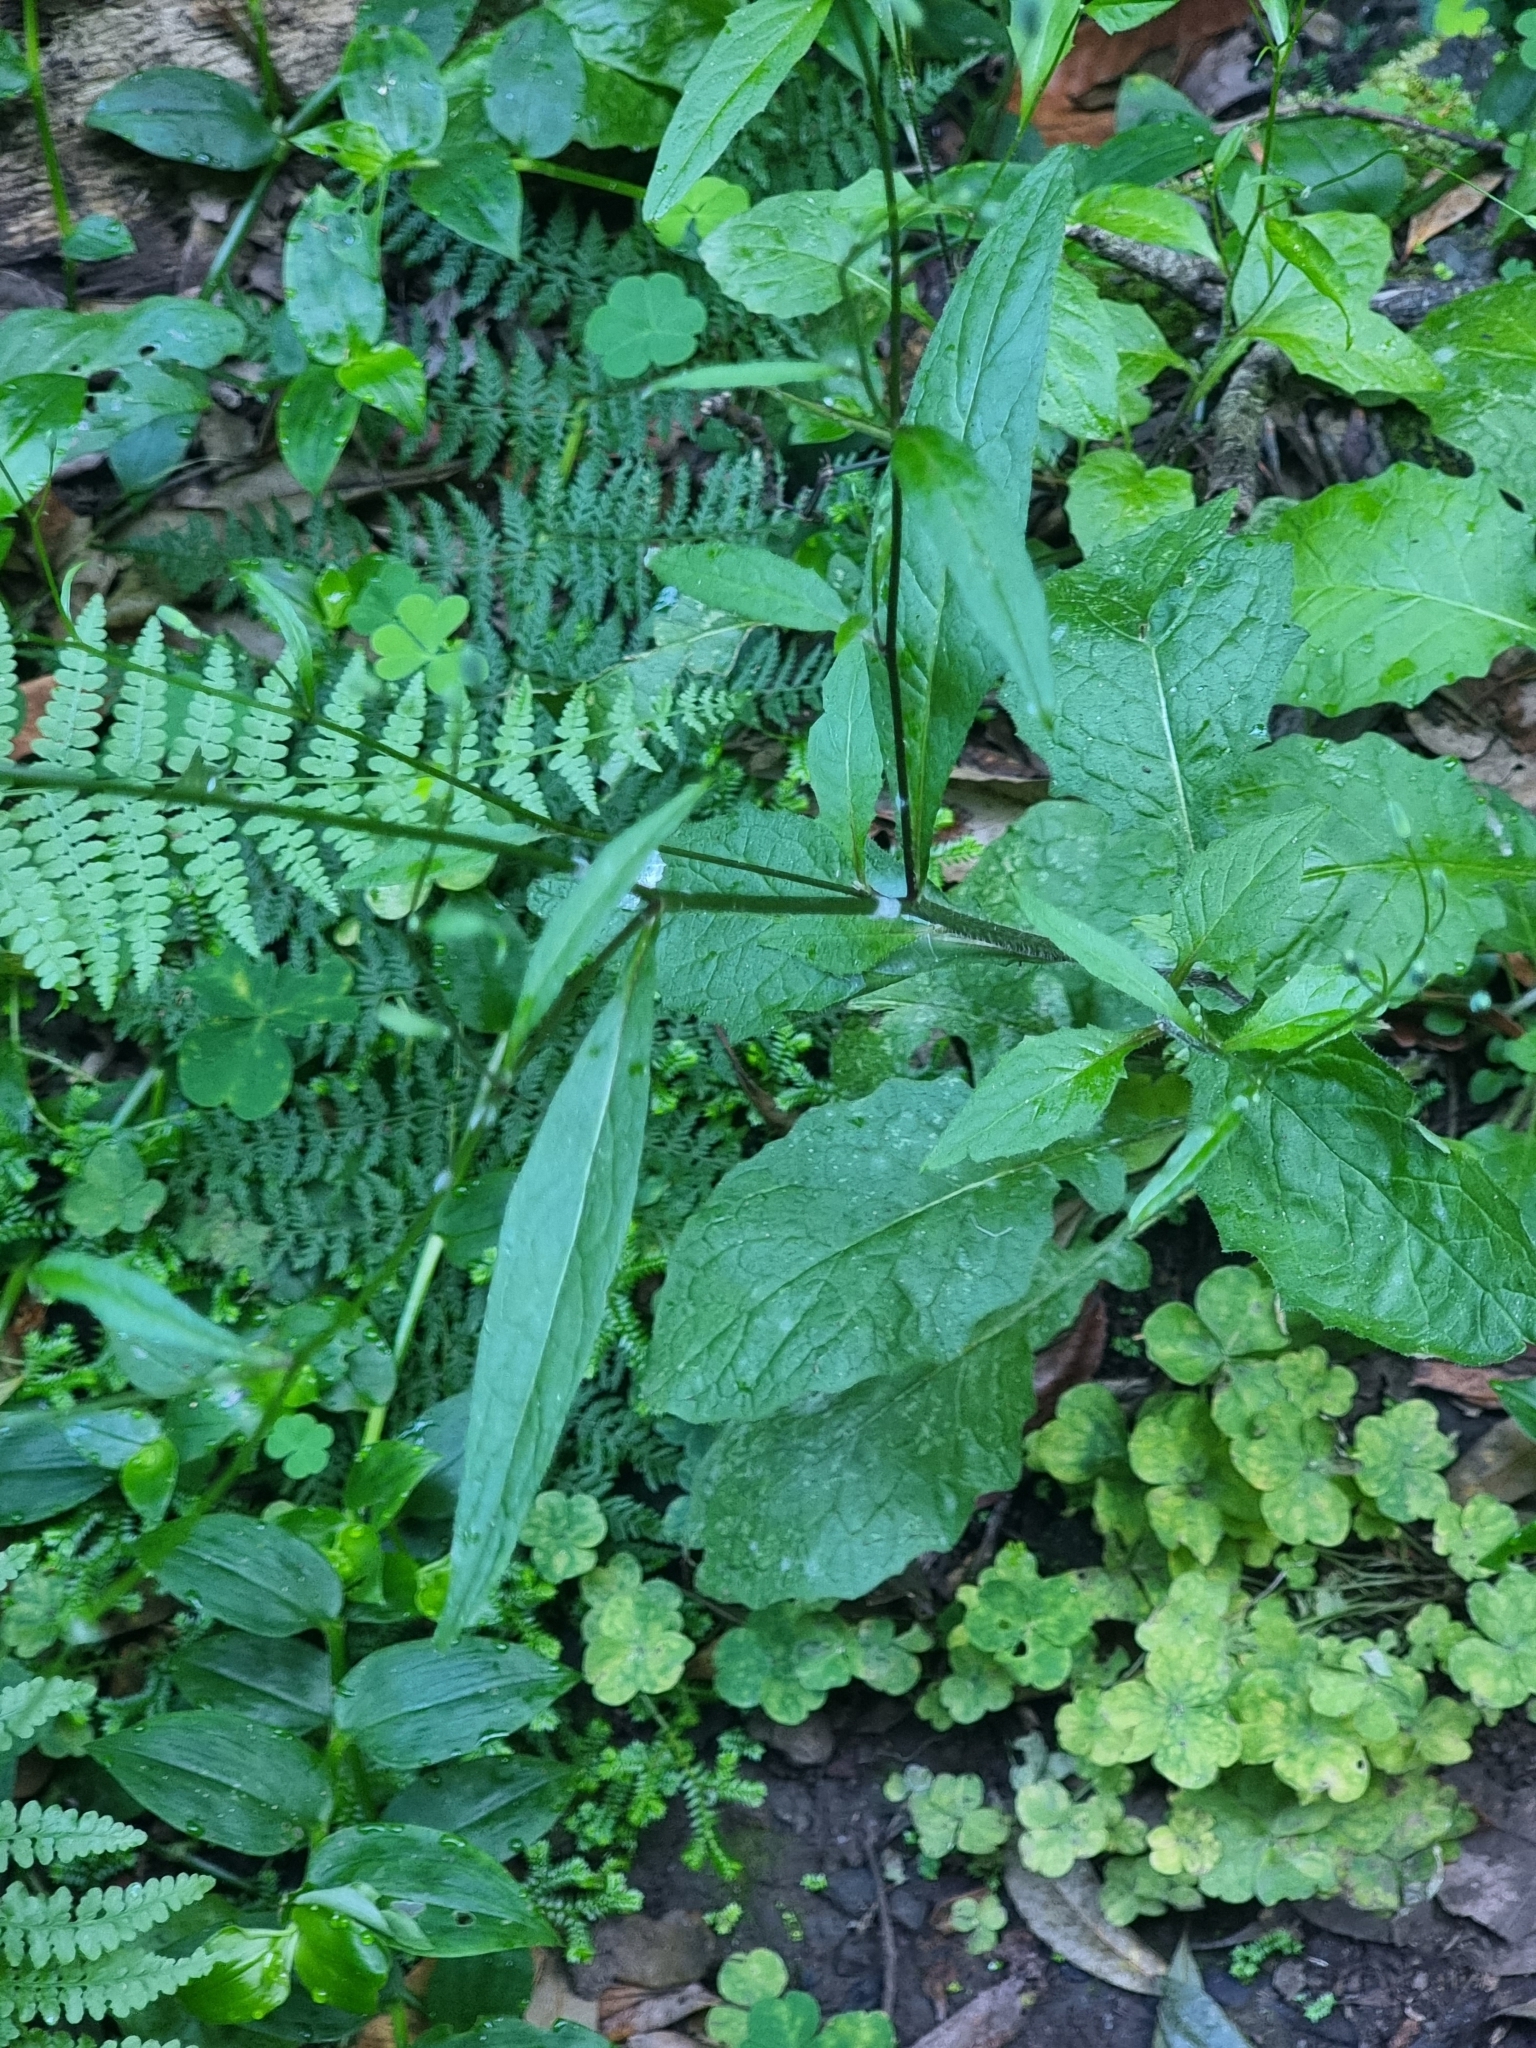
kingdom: Plantae
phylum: Tracheophyta
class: Magnoliopsida
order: Asterales
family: Asteraceae
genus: Lapsana
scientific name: Lapsana communis
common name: Nipplewort
